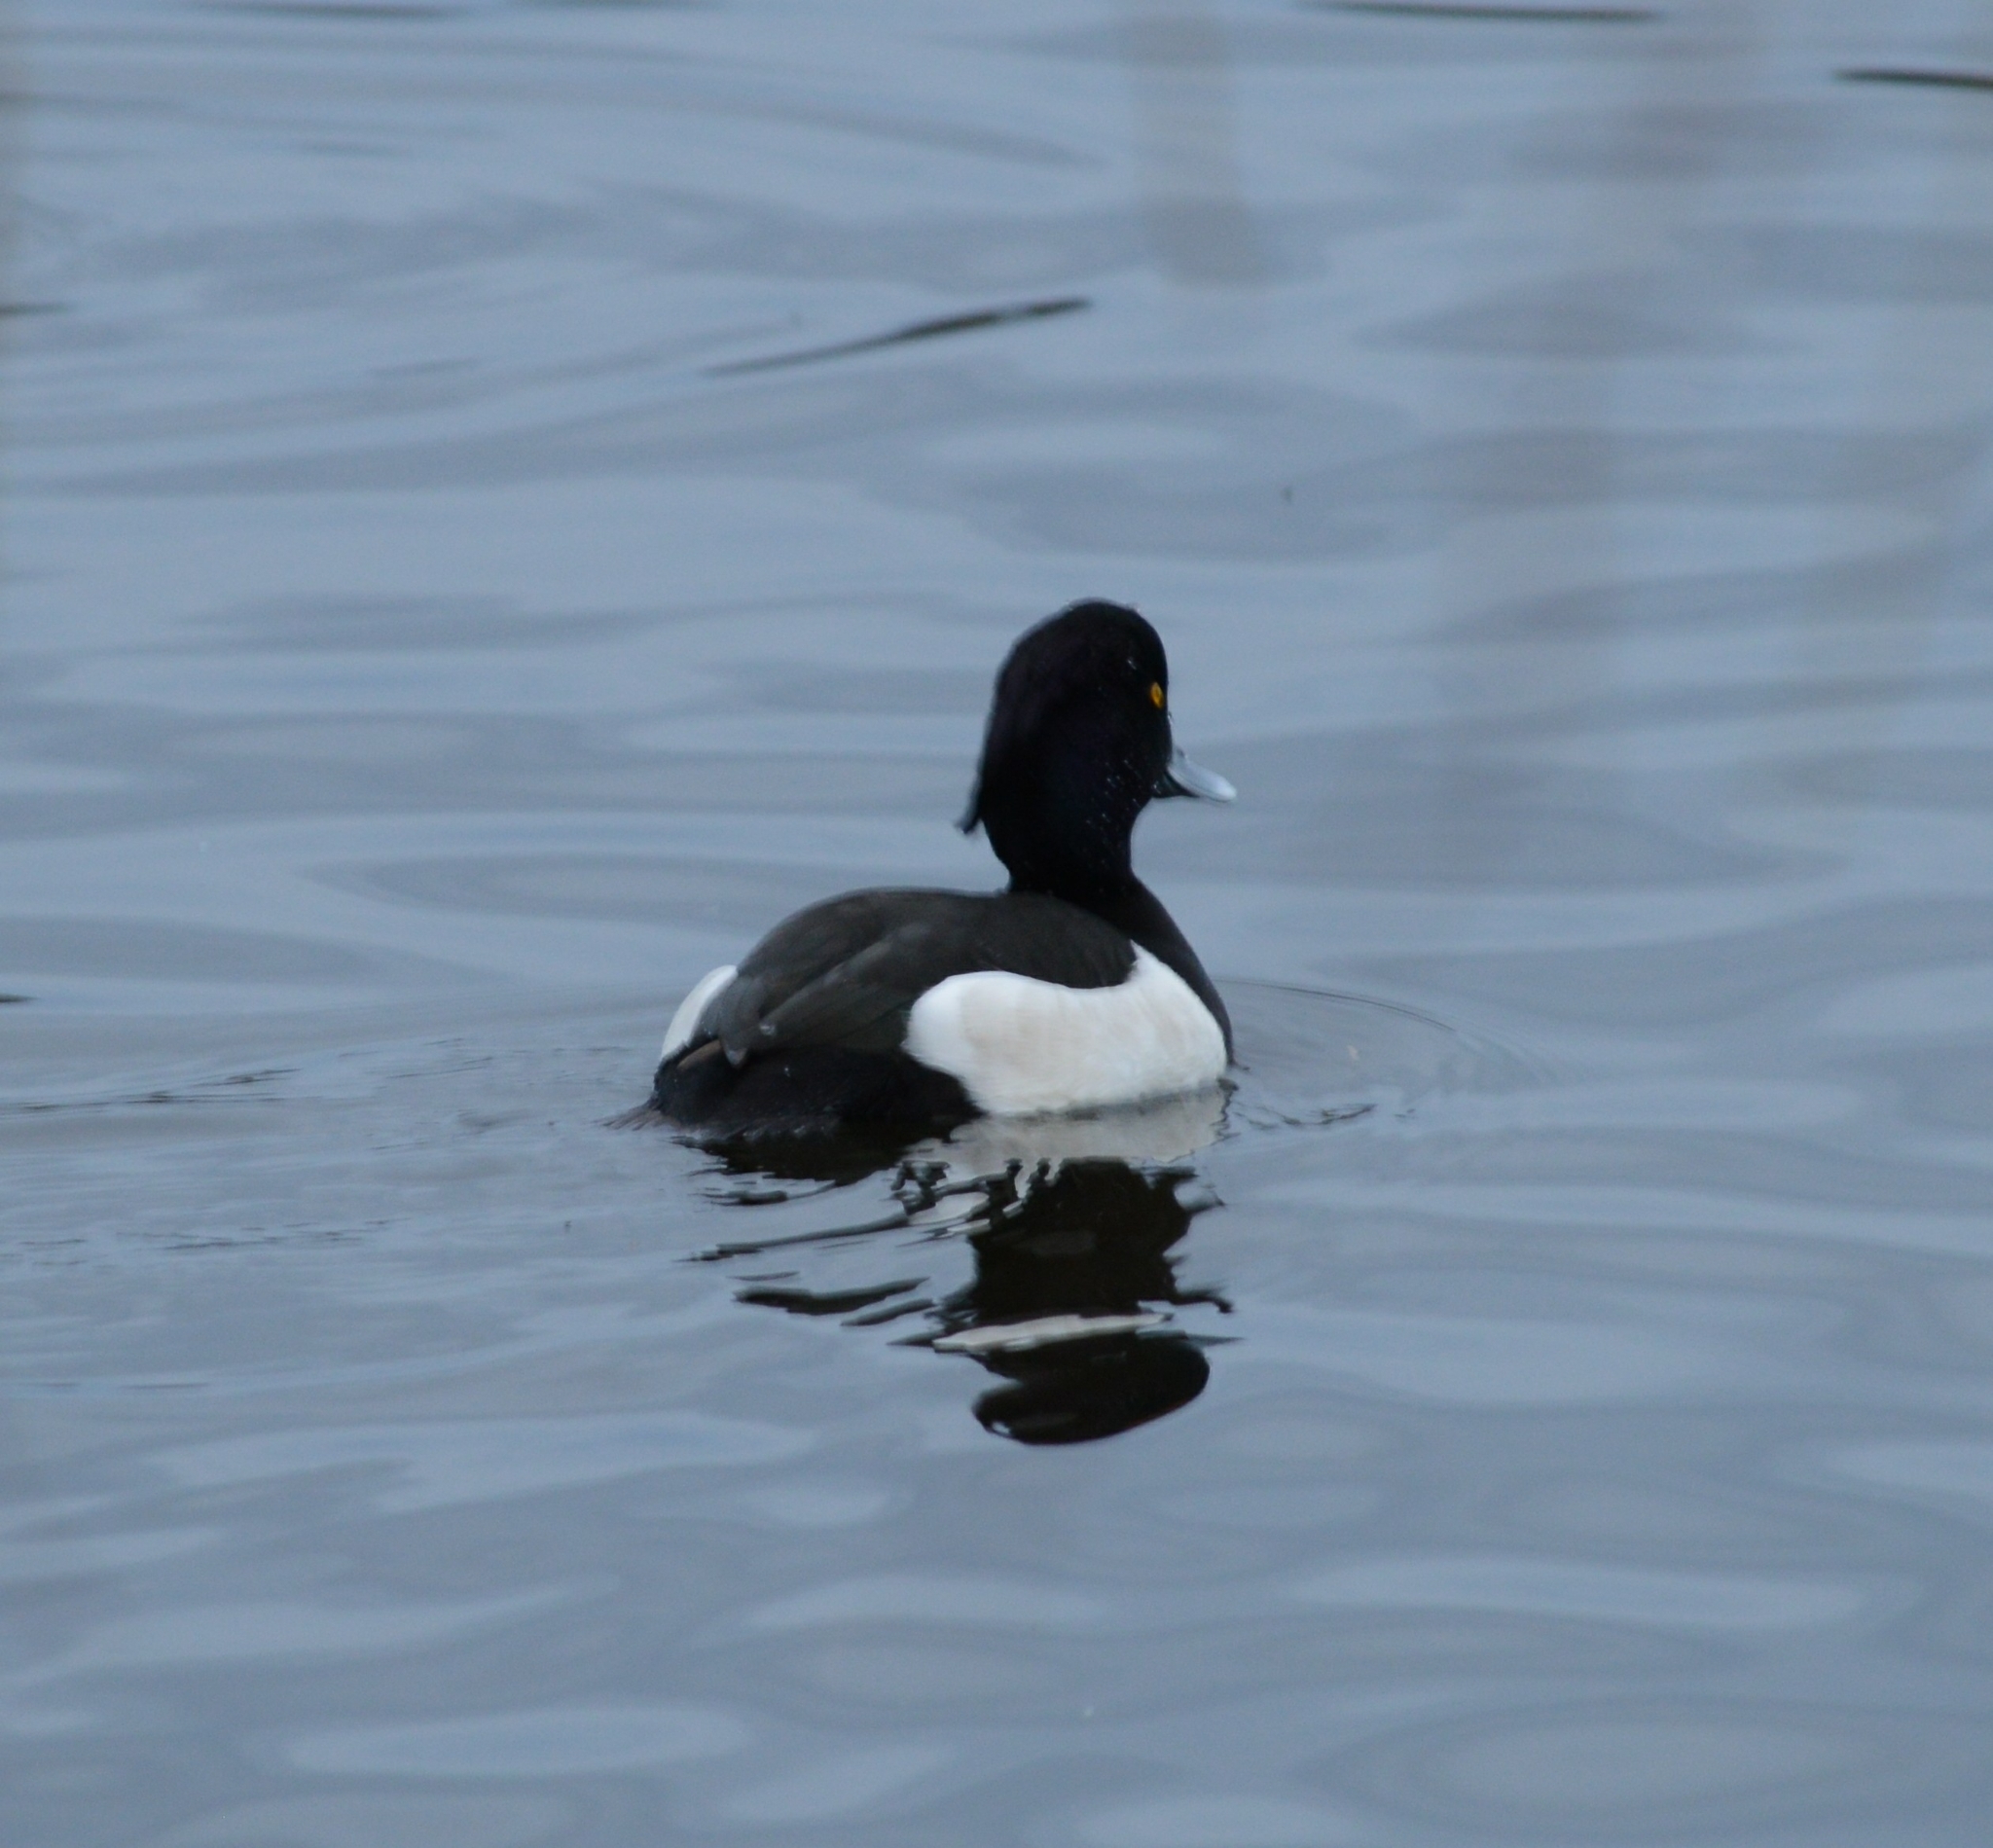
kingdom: Animalia
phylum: Chordata
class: Aves
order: Anseriformes
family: Anatidae
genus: Aythya
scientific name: Aythya fuligula
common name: Tufted duck
